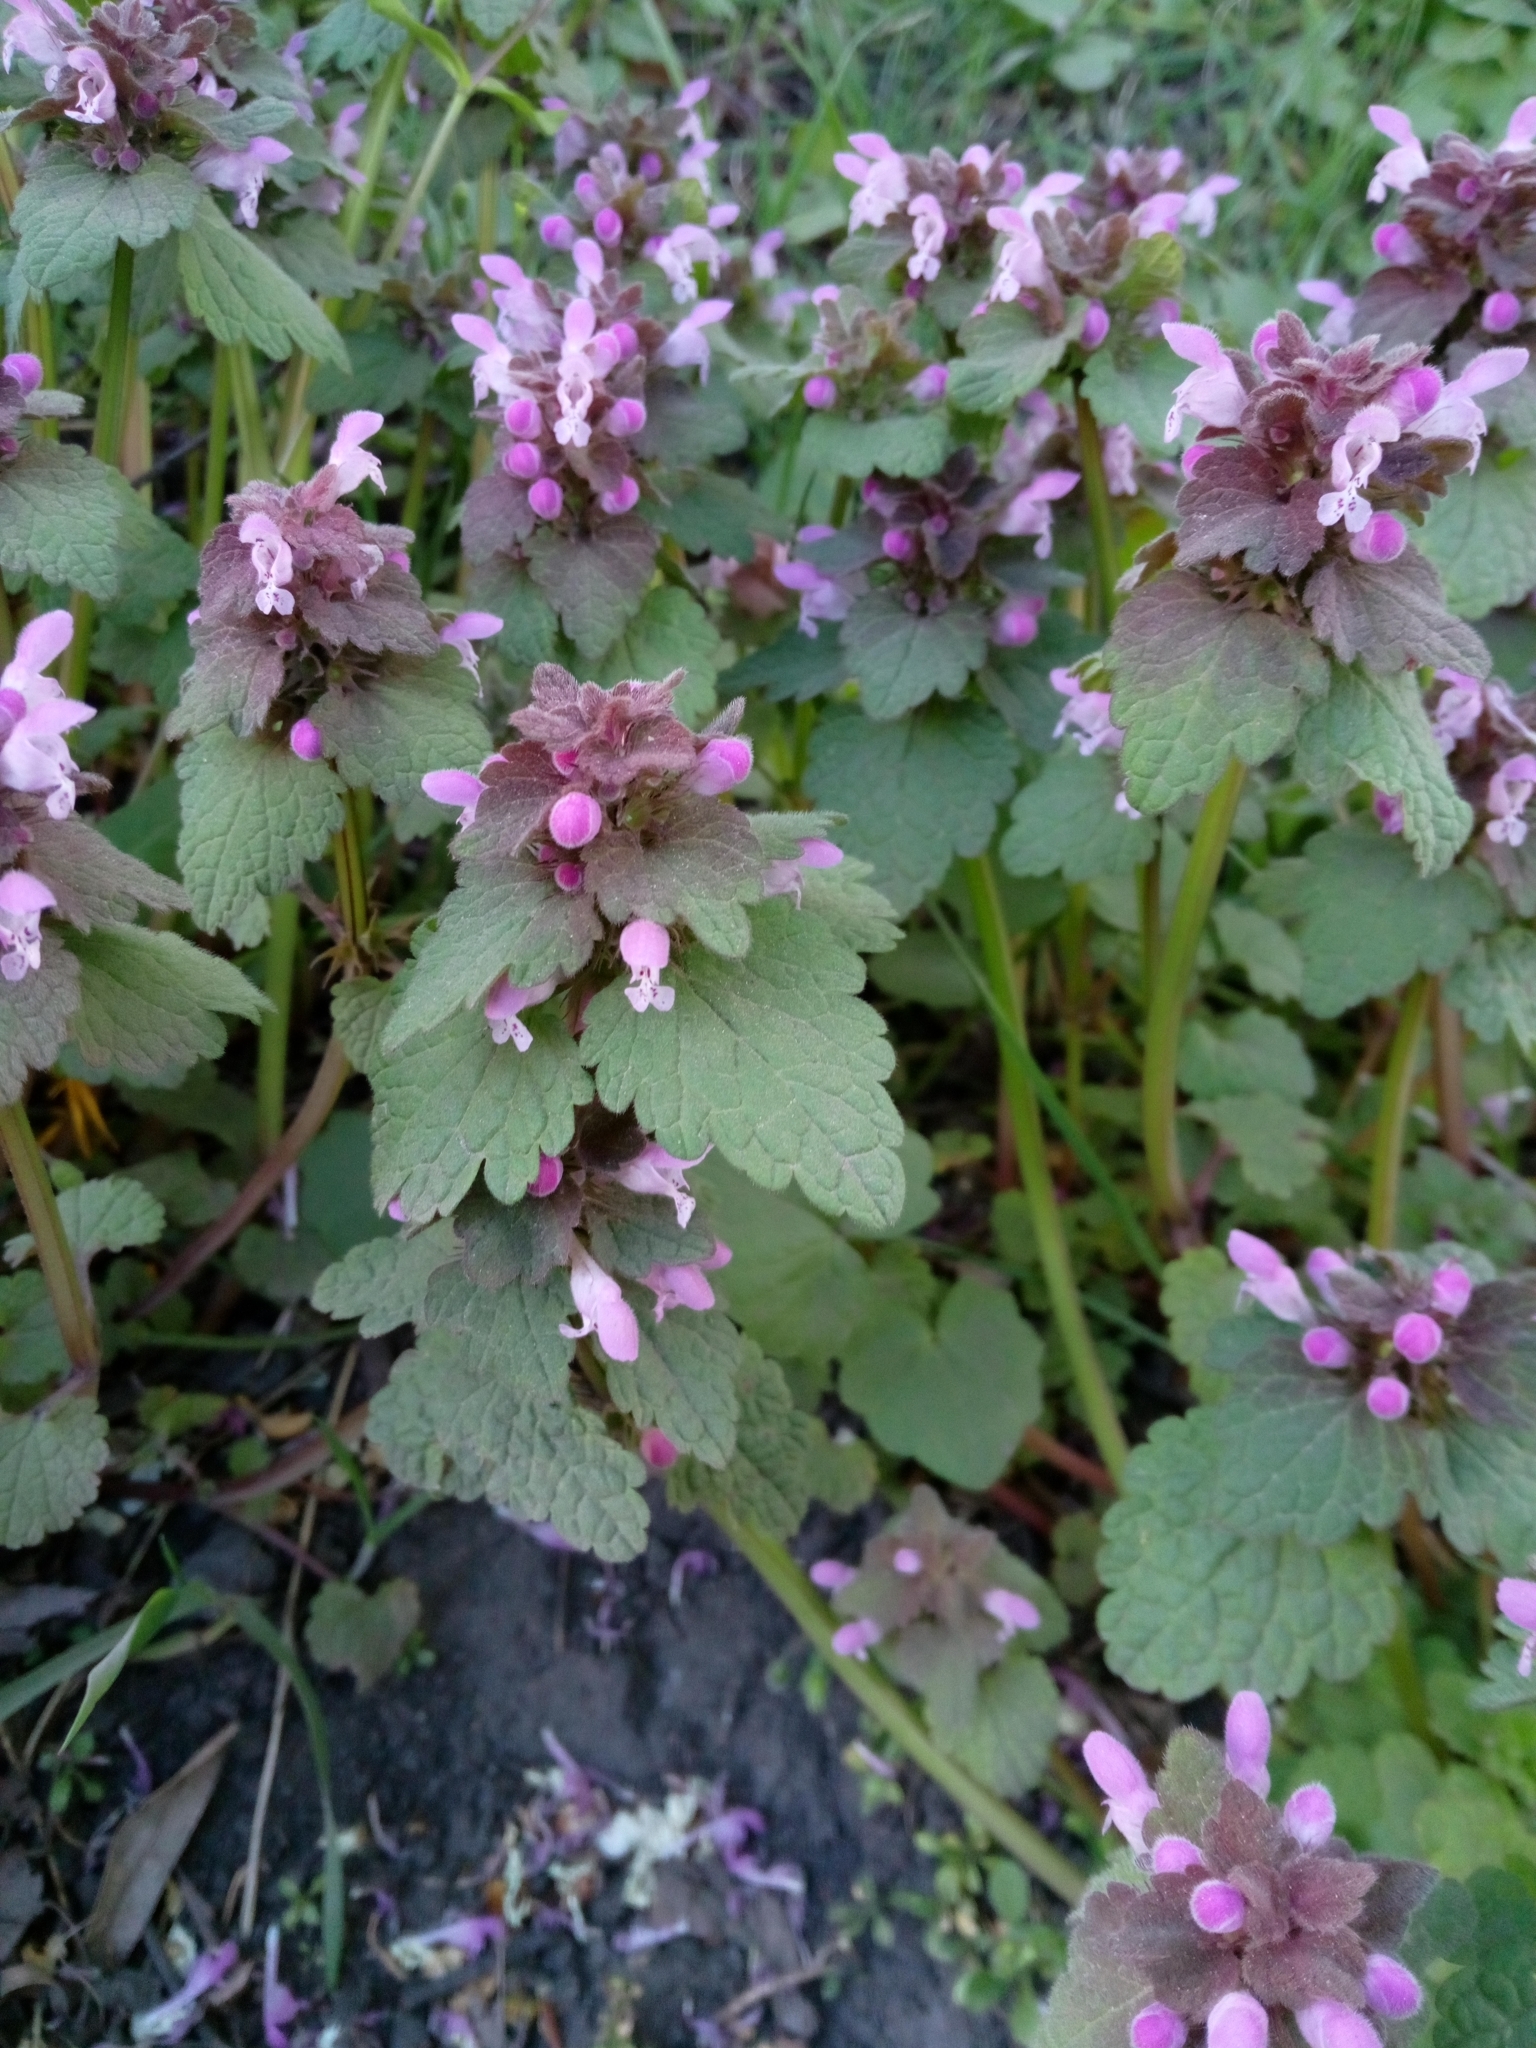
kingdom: Plantae
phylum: Tracheophyta
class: Magnoliopsida
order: Lamiales
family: Lamiaceae
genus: Lamium
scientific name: Lamium purpureum
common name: Red dead-nettle
